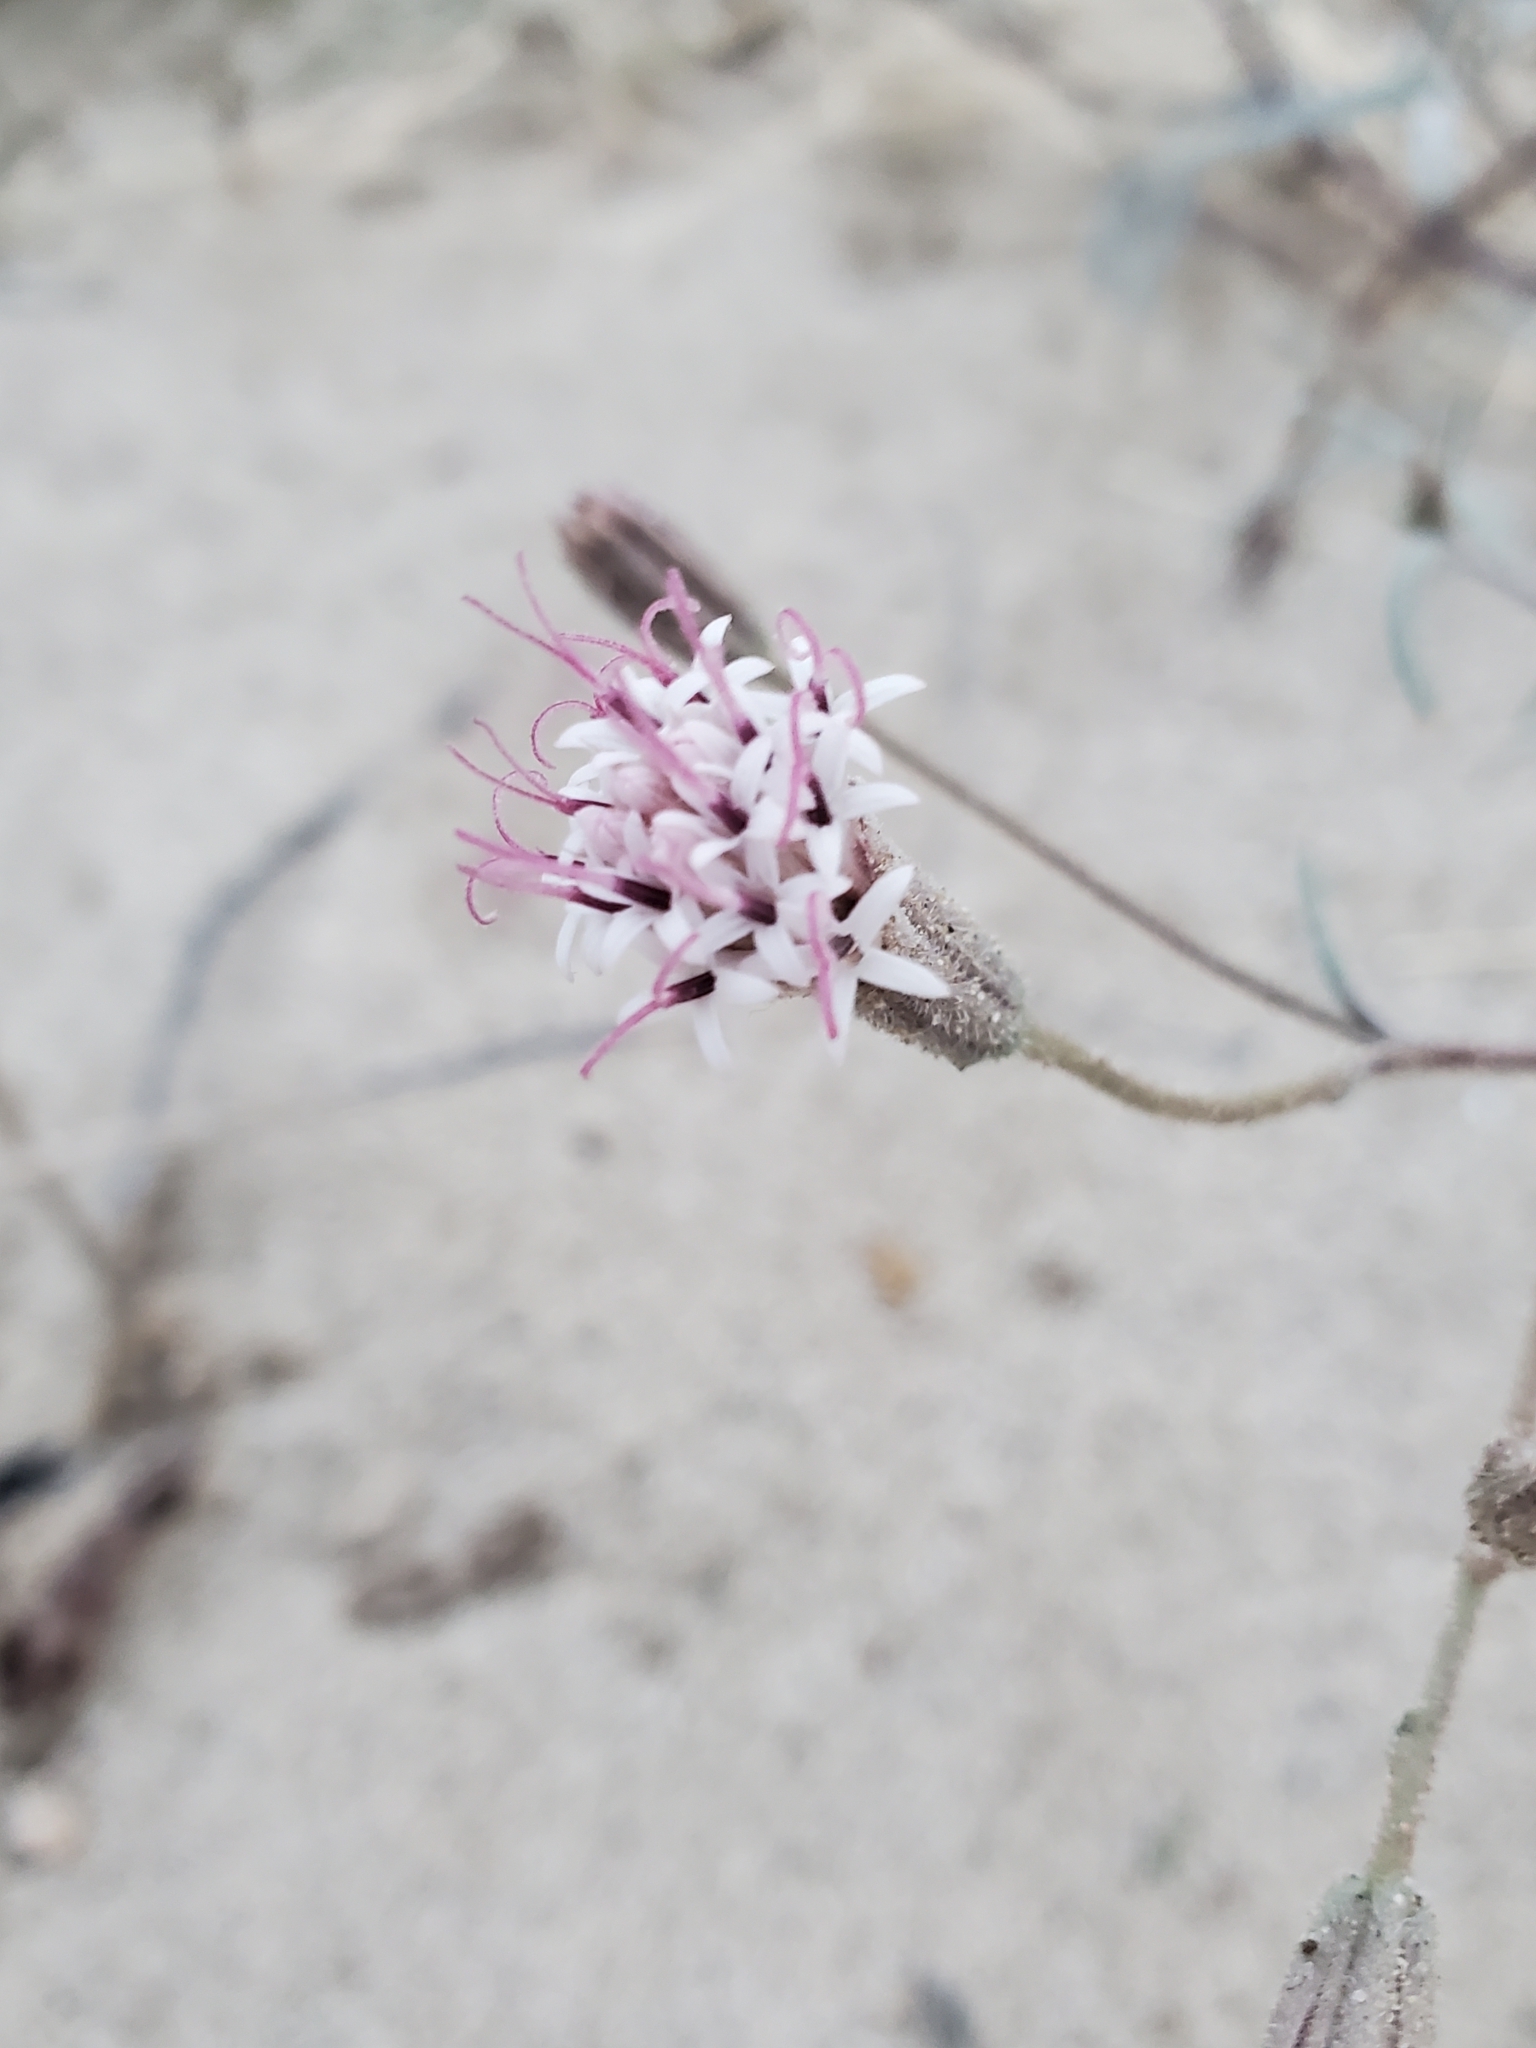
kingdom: Plantae
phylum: Tracheophyta
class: Magnoliopsida
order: Asterales
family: Asteraceae
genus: Palafoxia
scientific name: Palafoxia arida
